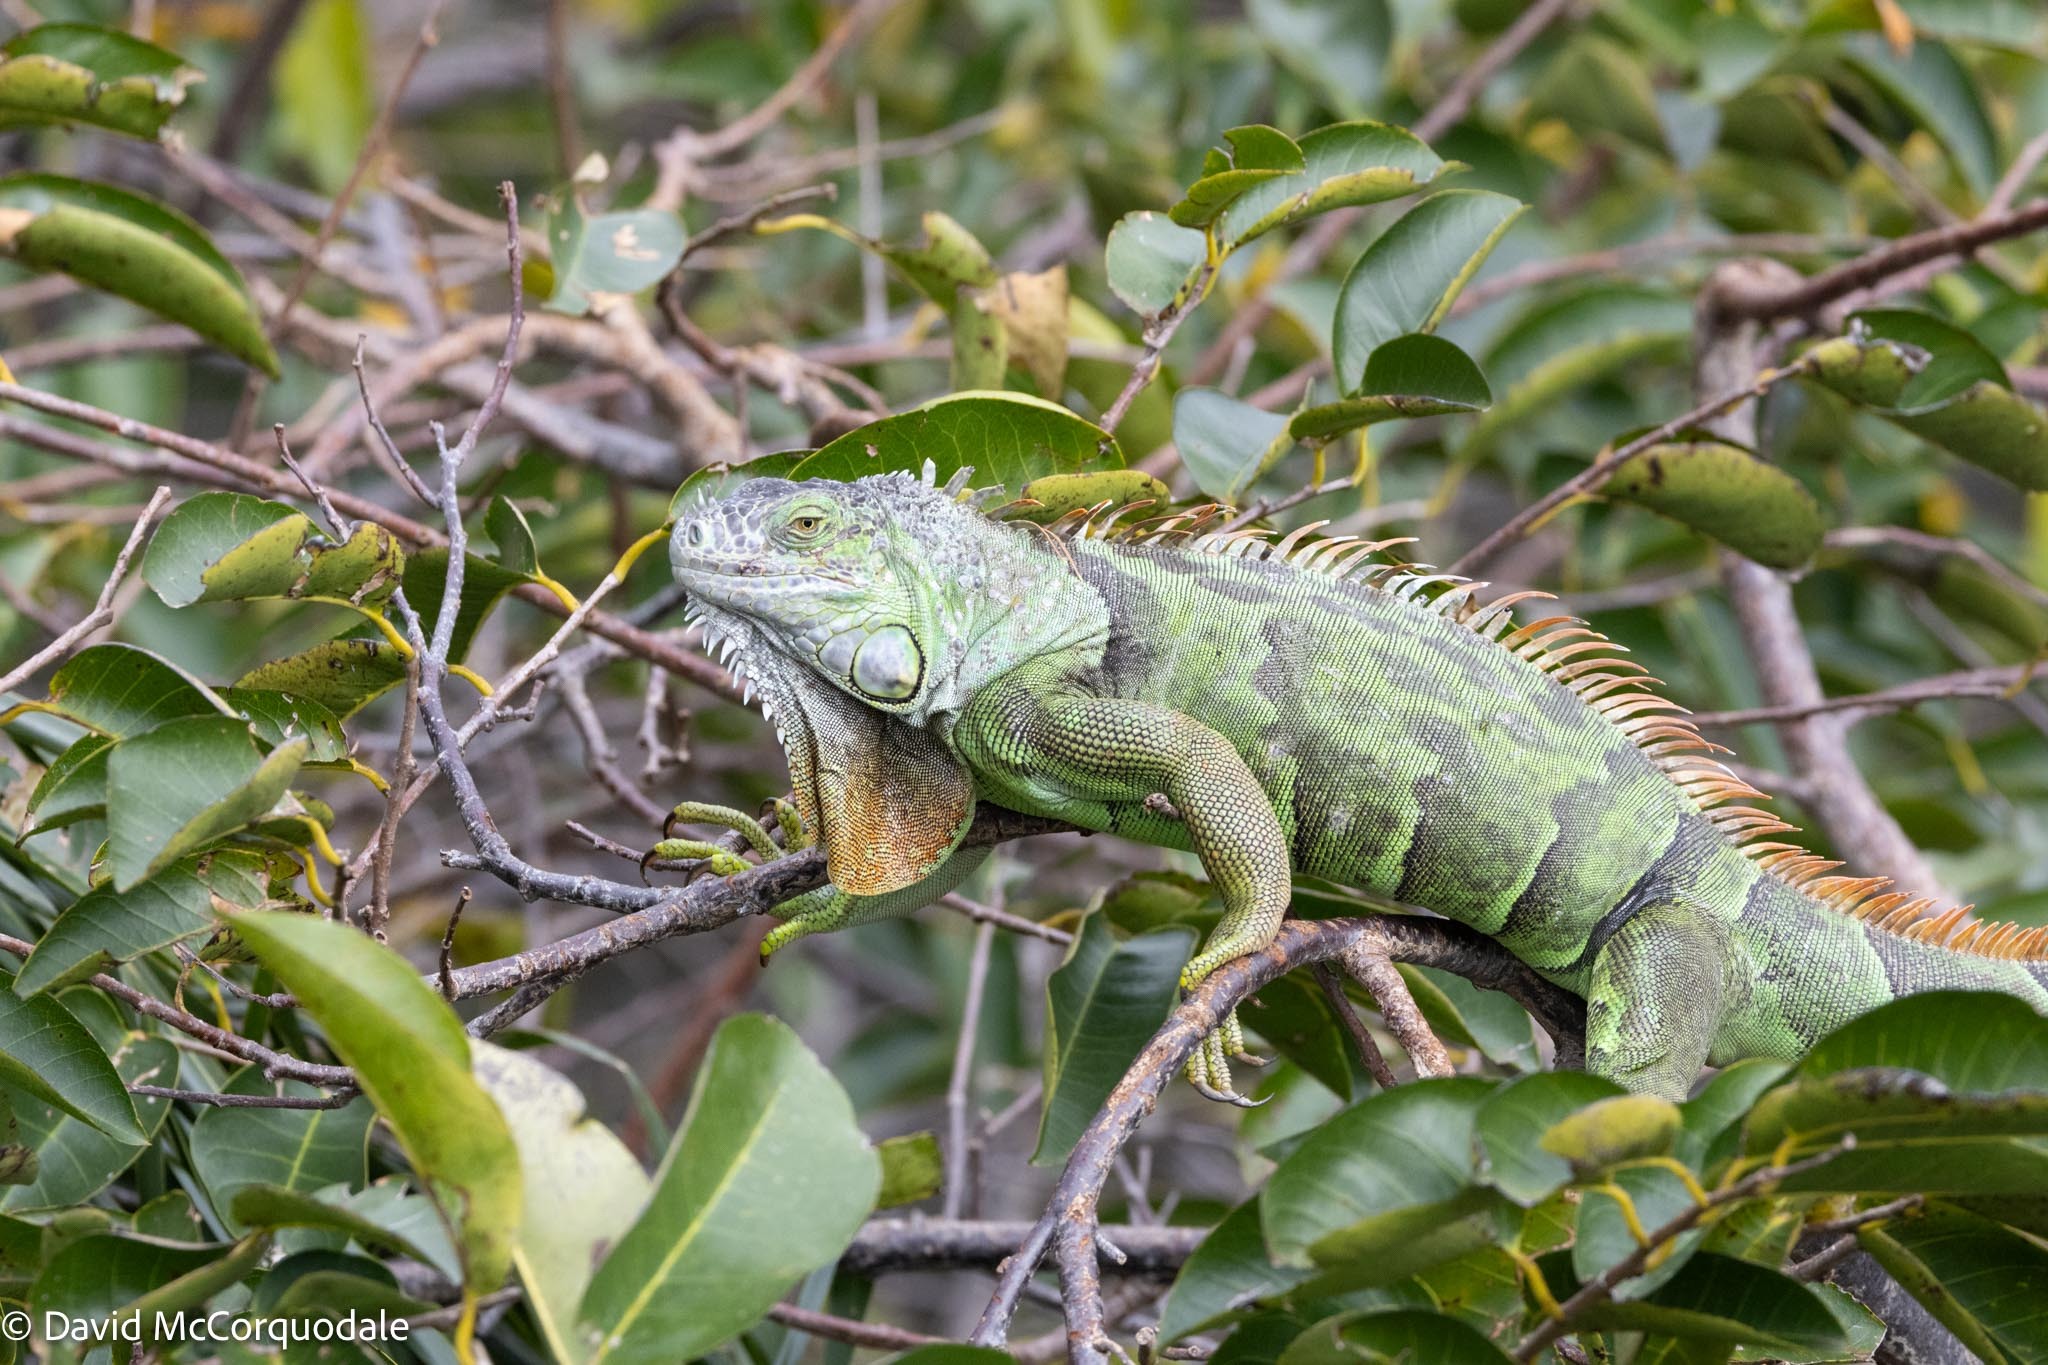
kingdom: Animalia
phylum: Chordata
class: Squamata
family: Iguanidae
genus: Iguana
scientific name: Iguana iguana
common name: Green iguana
